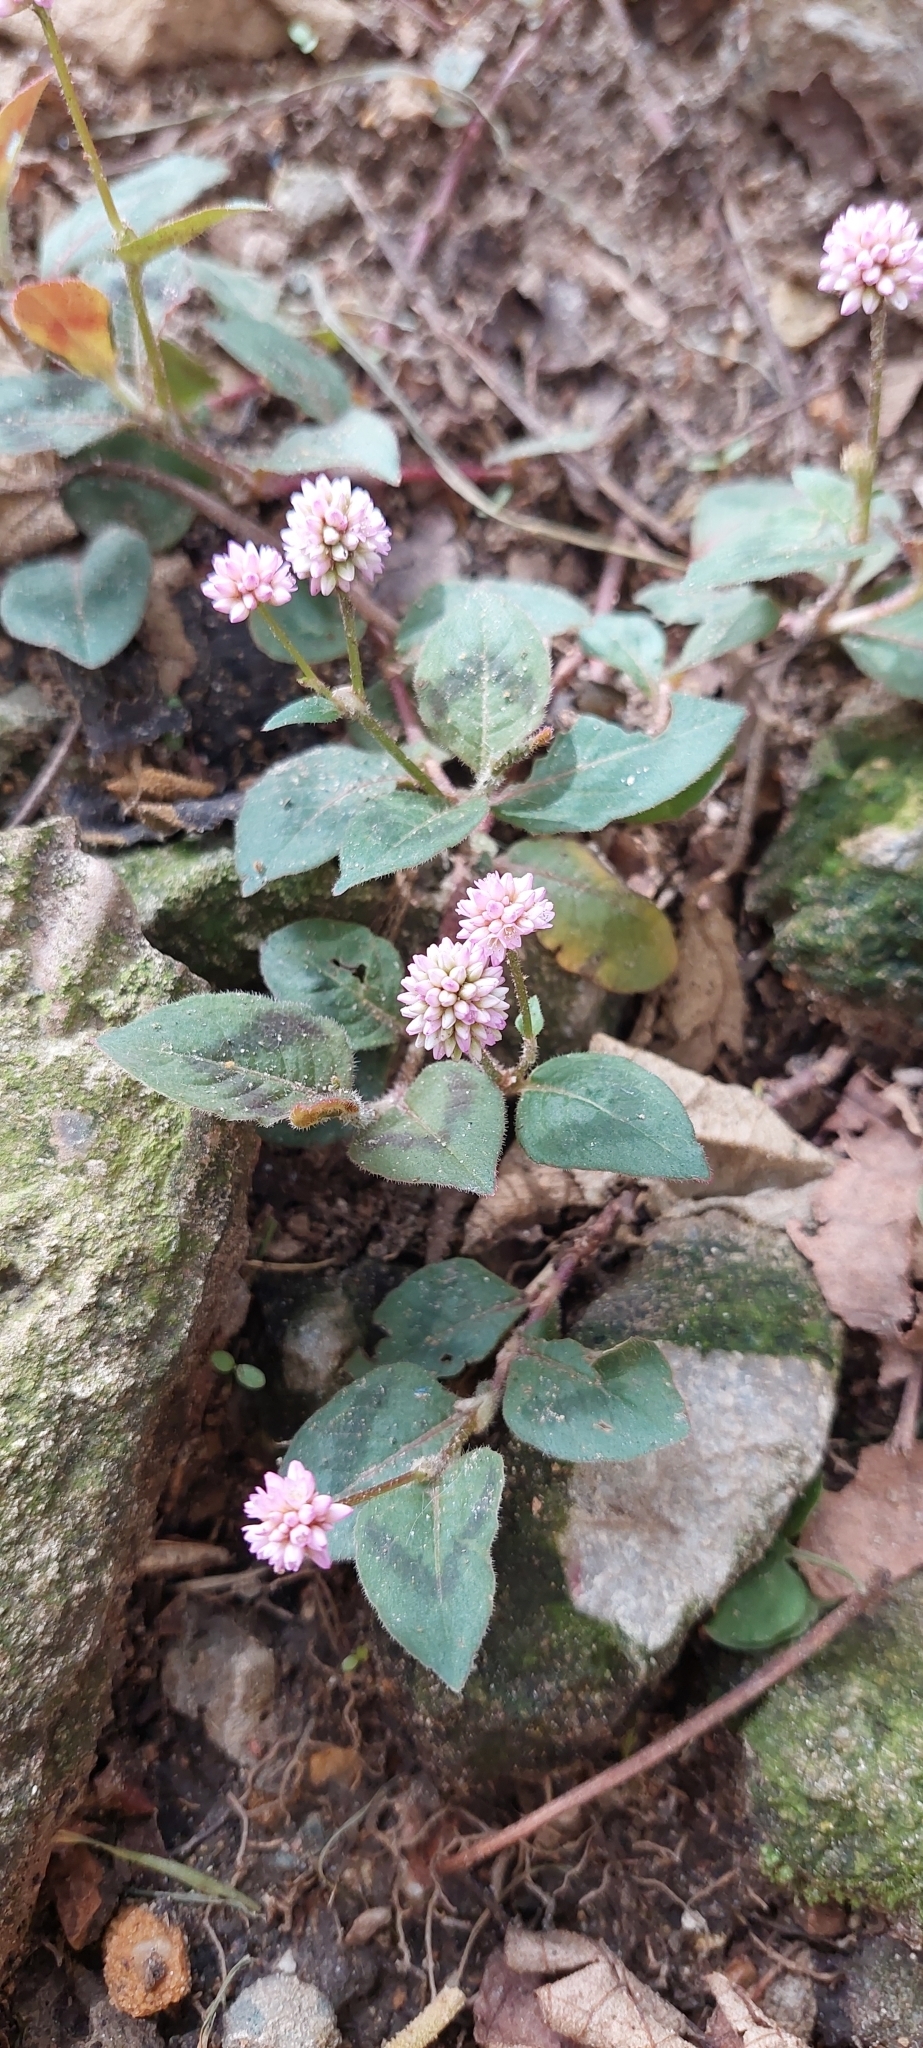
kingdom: Plantae
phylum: Tracheophyta
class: Magnoliopsida
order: Caryophyllales
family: Polygonaceae
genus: Persicaria
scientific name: Persicaria capitata
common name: Pinkhead smartweed
